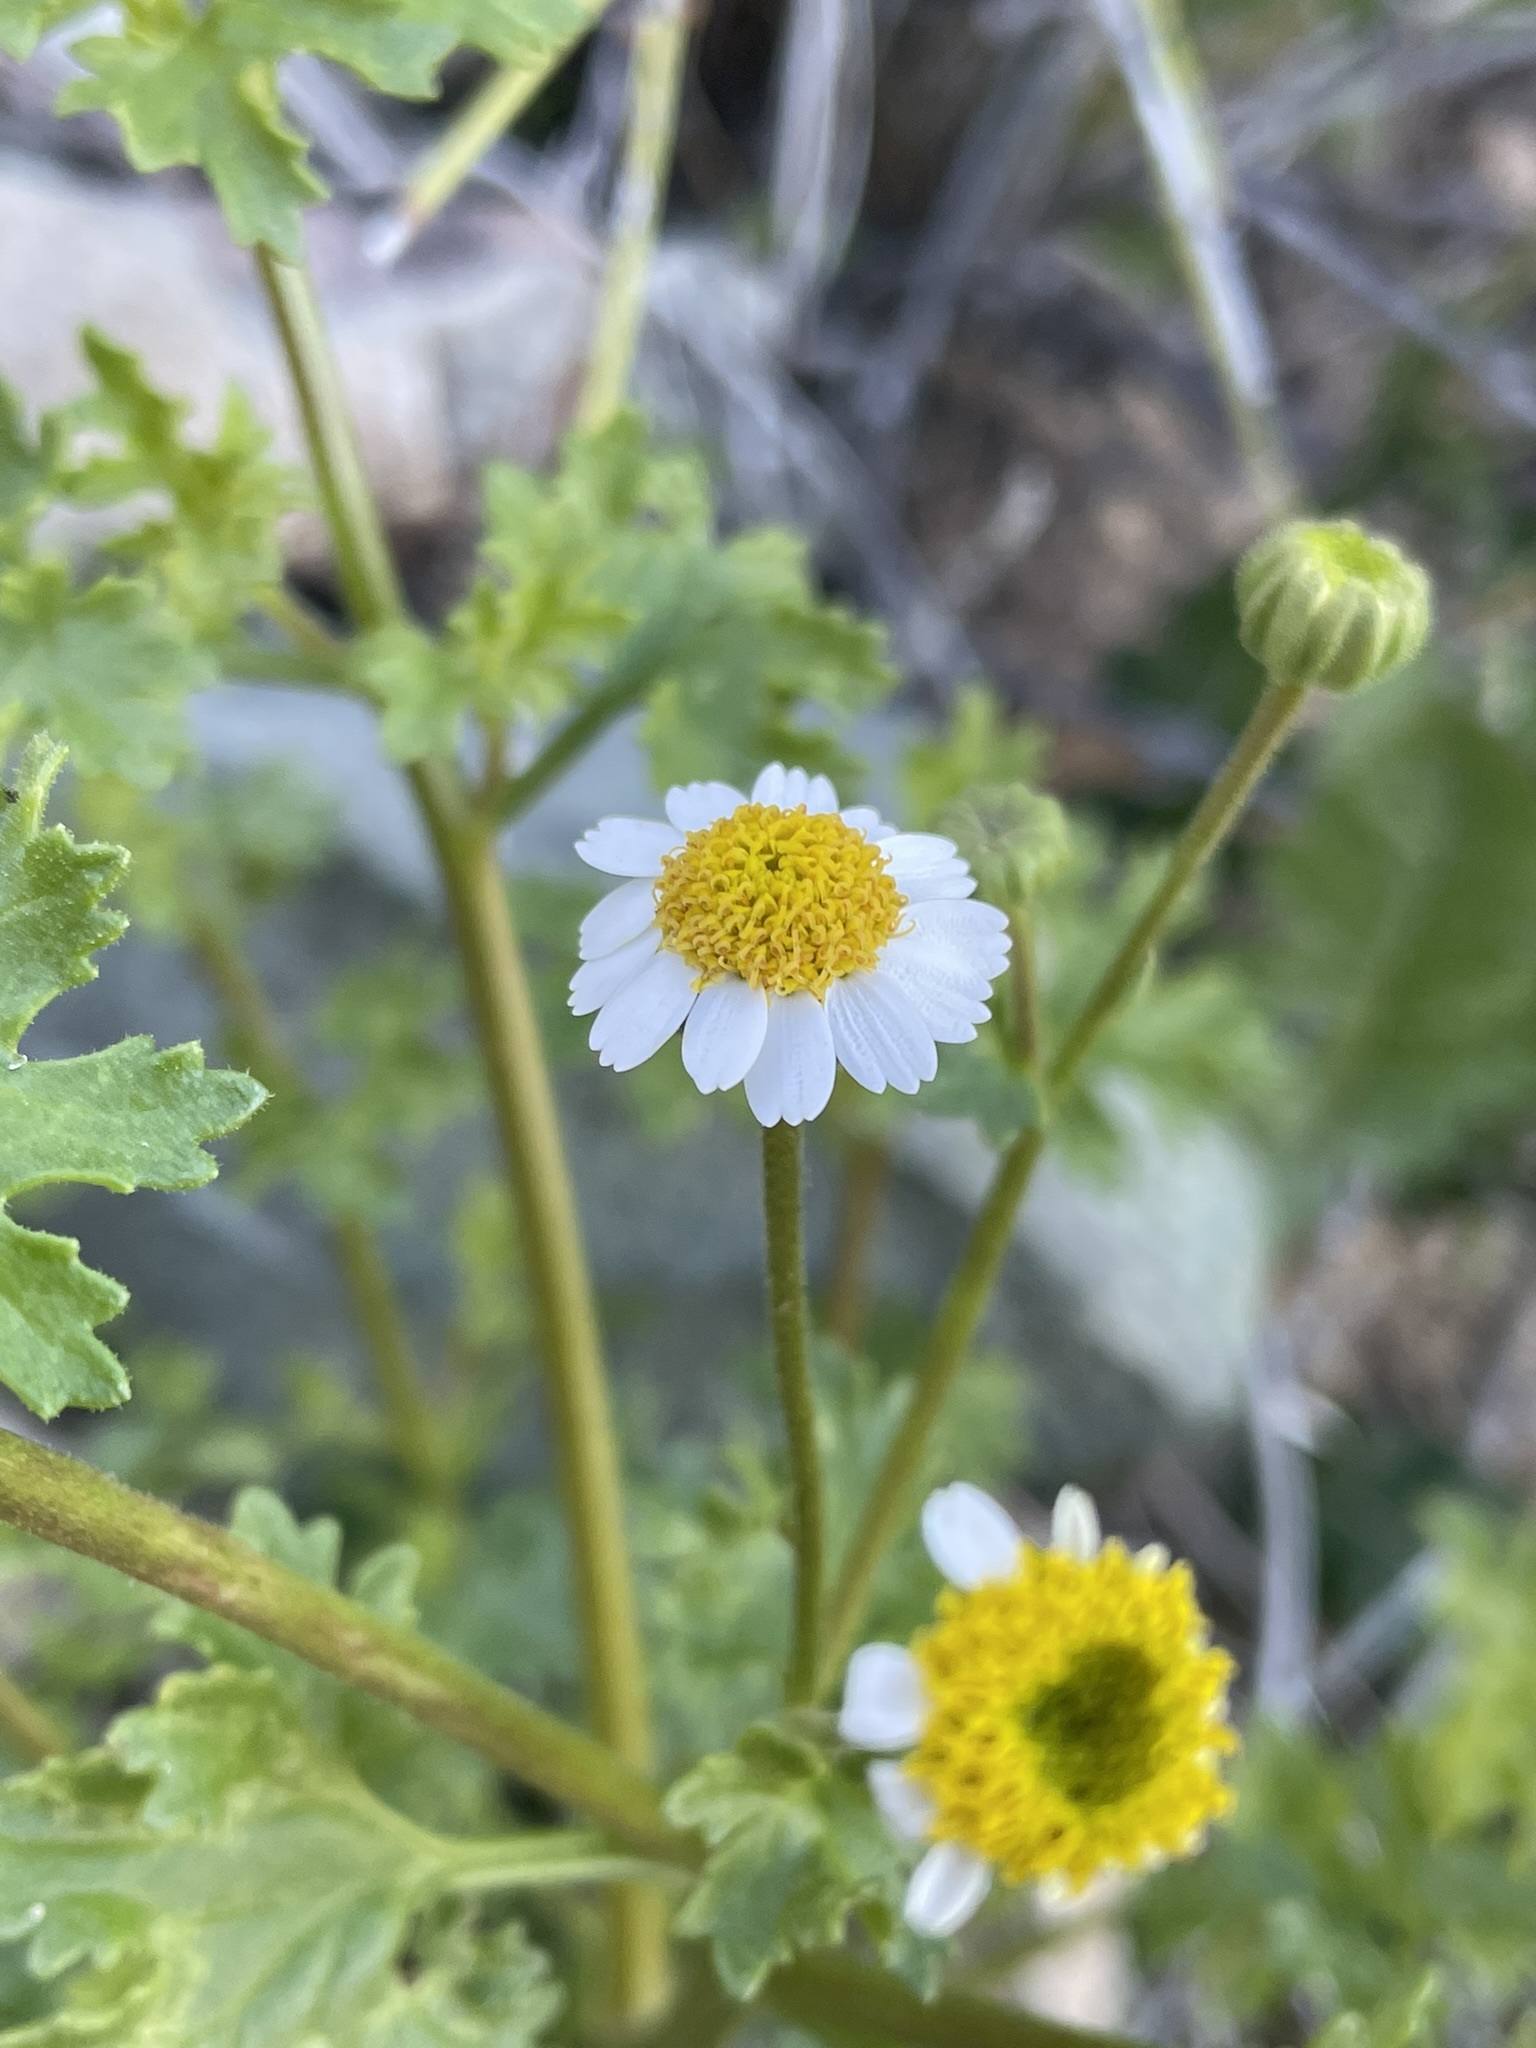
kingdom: Plantae
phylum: Tracheophyta
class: Magnoliopsida
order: Asterales
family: Asteraceae
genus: Laphamia
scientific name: Laphamia emoryi
